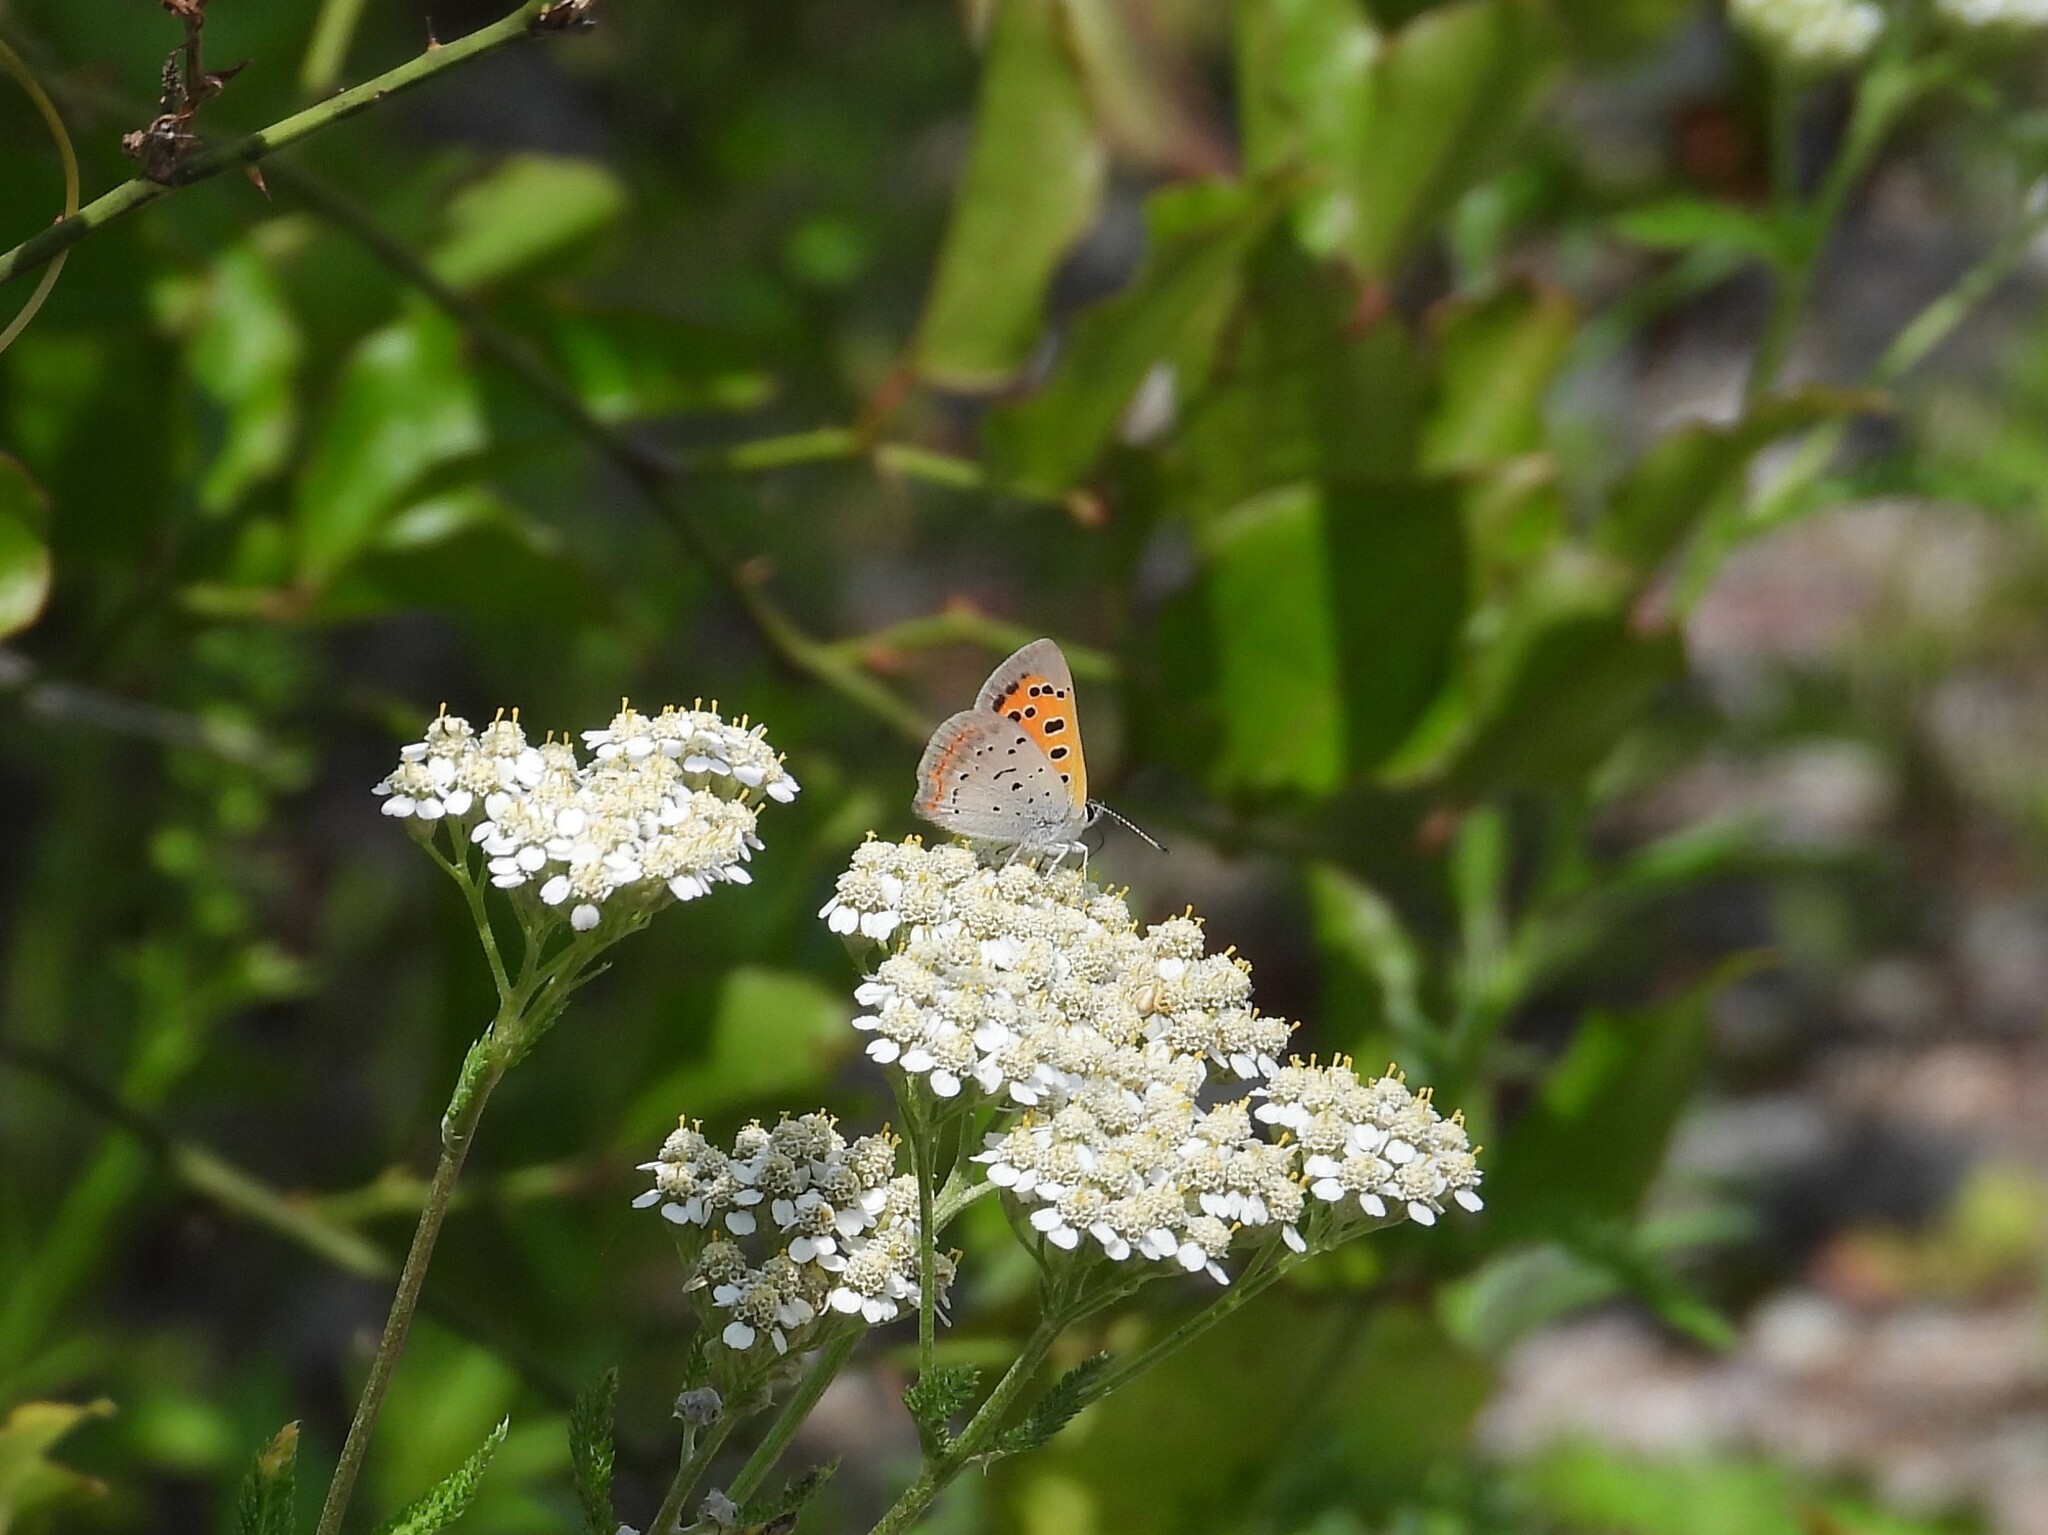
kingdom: Animalia
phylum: Arthropoda
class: Insecta
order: Lepidoptera
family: Lycaenidae
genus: Lycaena
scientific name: Lycaena hypophlaeas
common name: American copper
